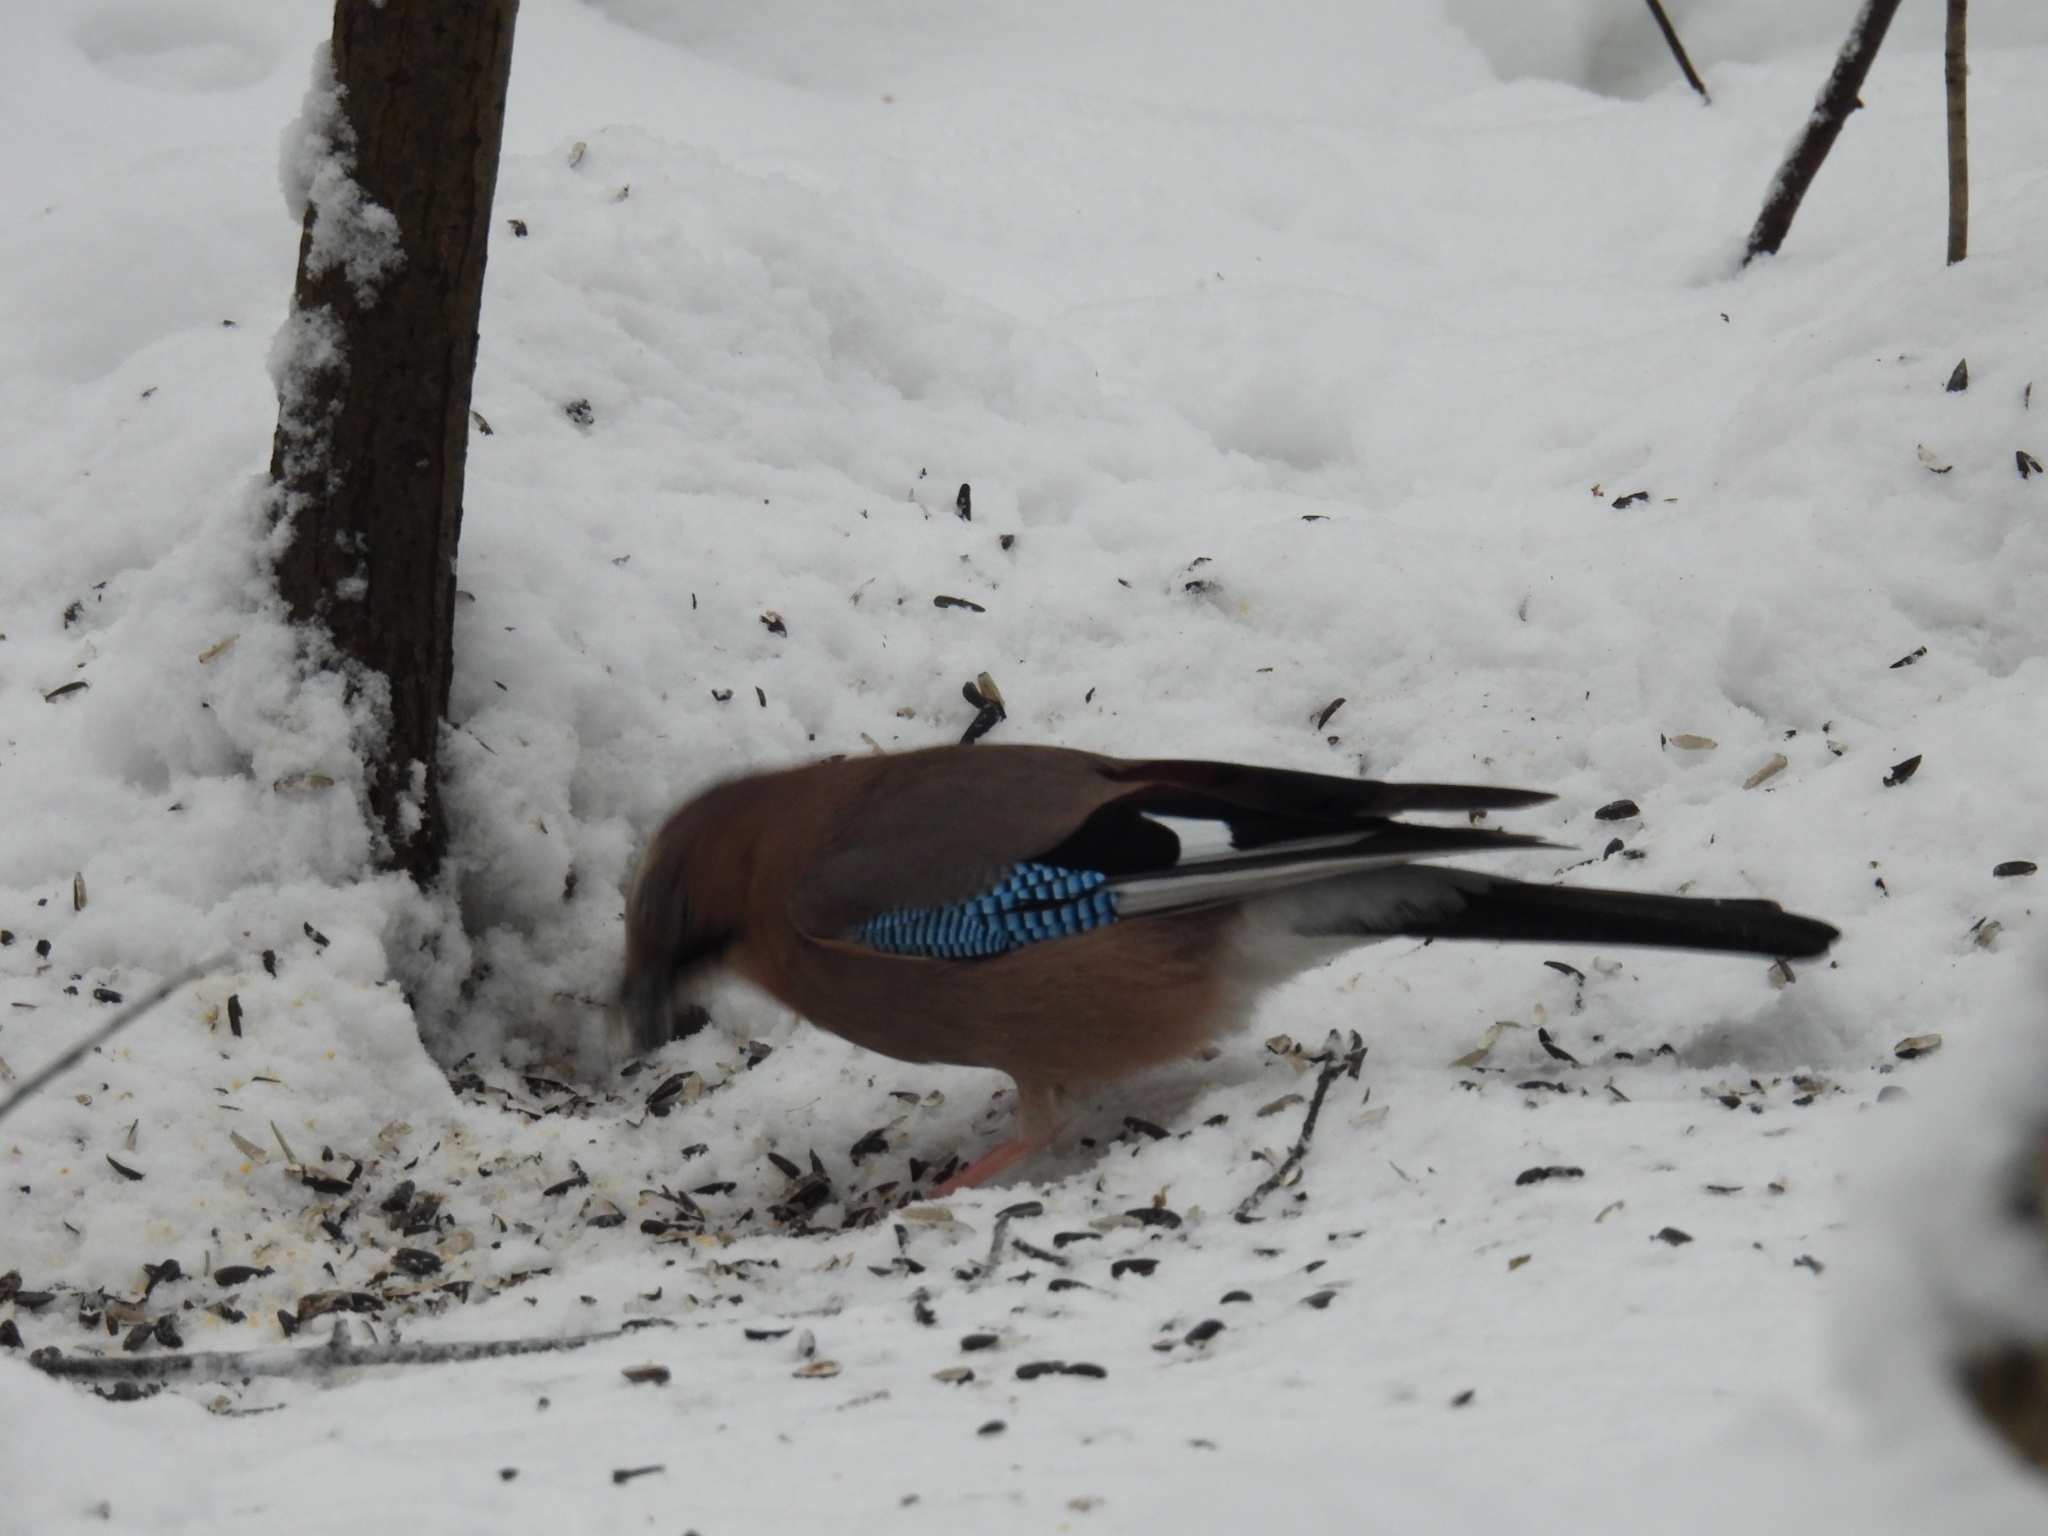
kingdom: Animalia
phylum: Chordata
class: Aves
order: Passeriformes
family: Corvidae
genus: Garrulus
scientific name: Garrulus glandarius
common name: Eurasian jay
